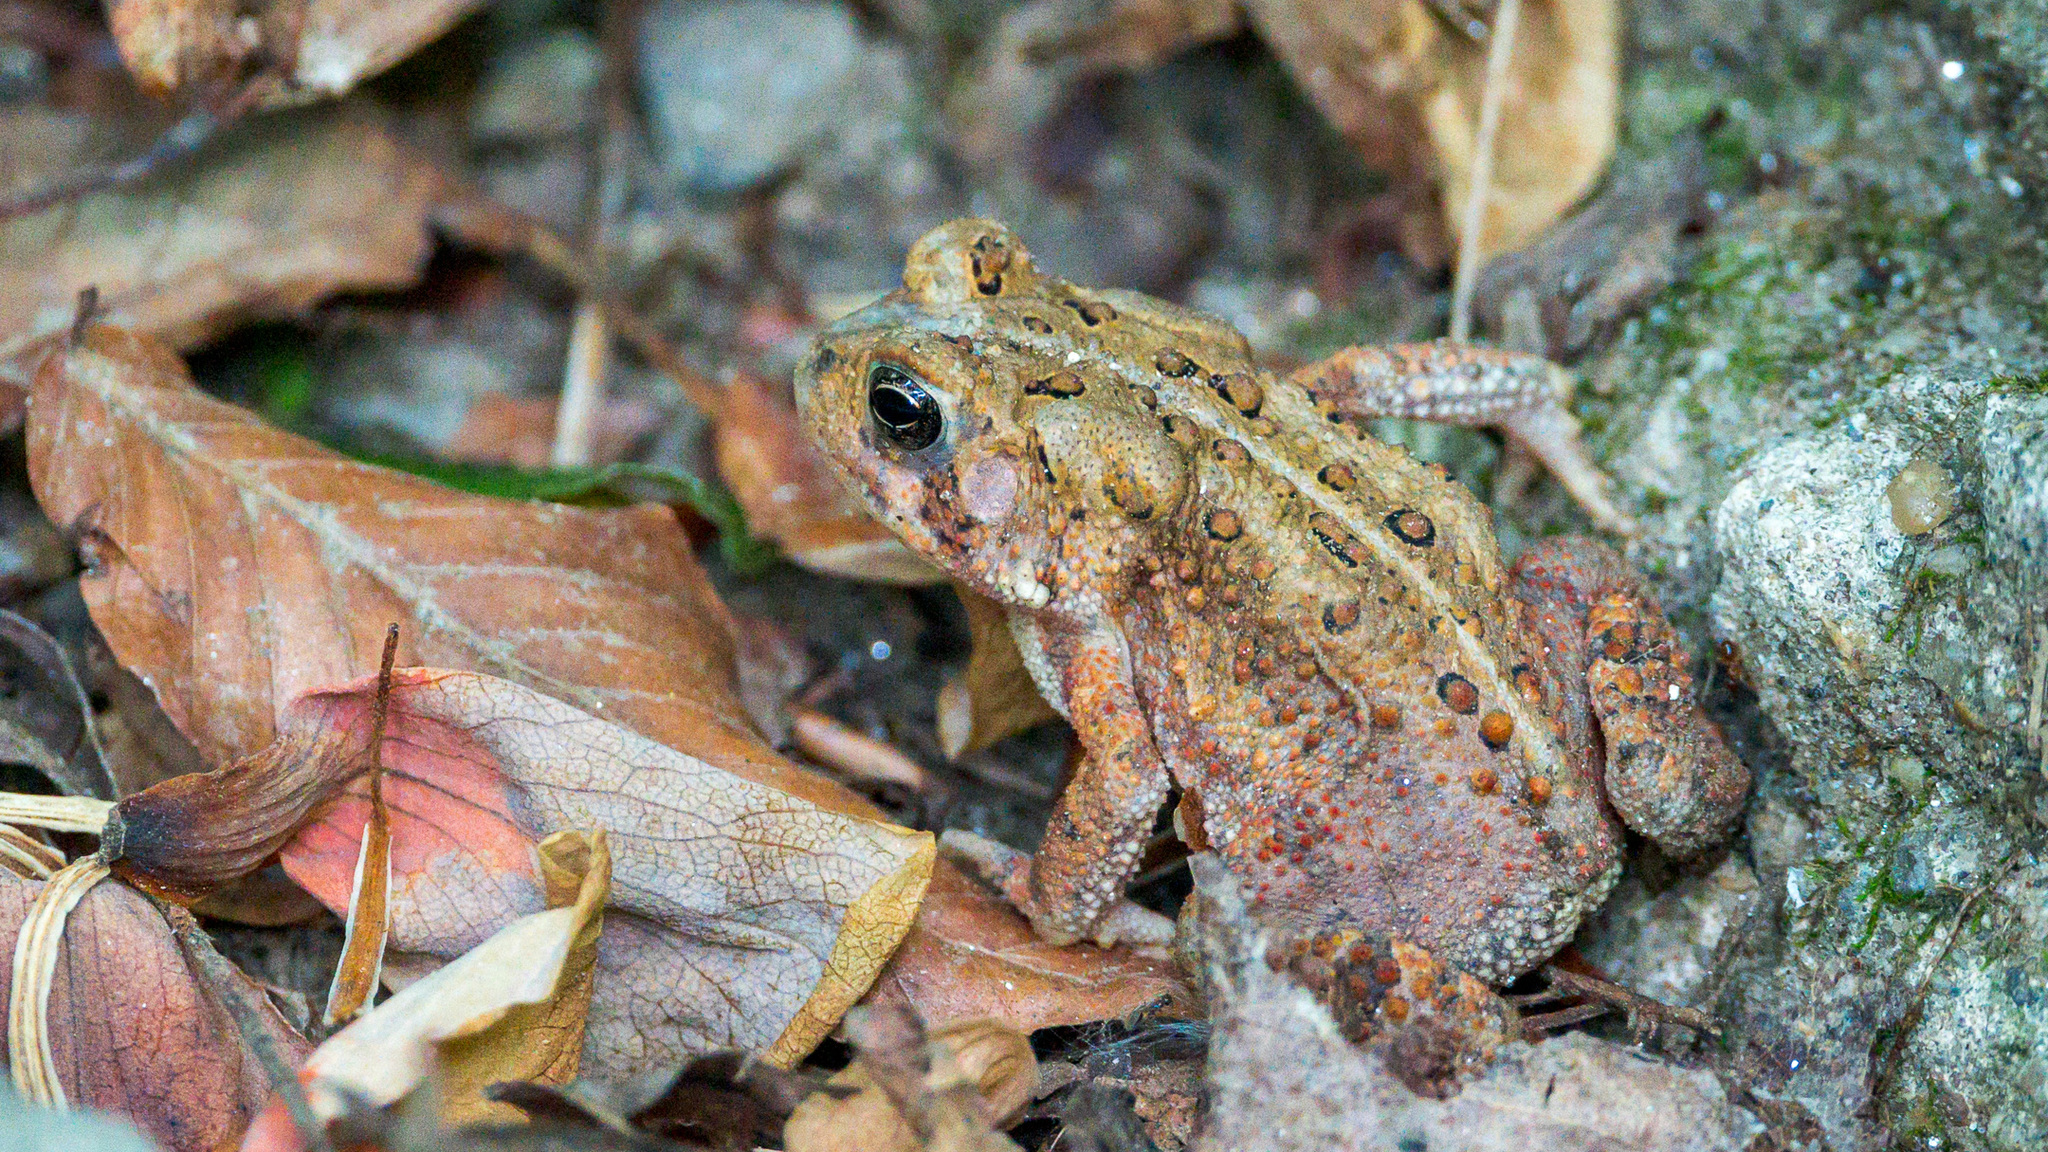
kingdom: Animalia
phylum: Chordata
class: Amphibia
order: Anura
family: Bufonidae
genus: Anaxyrus
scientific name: Anaxyrus americanus
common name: American toad
